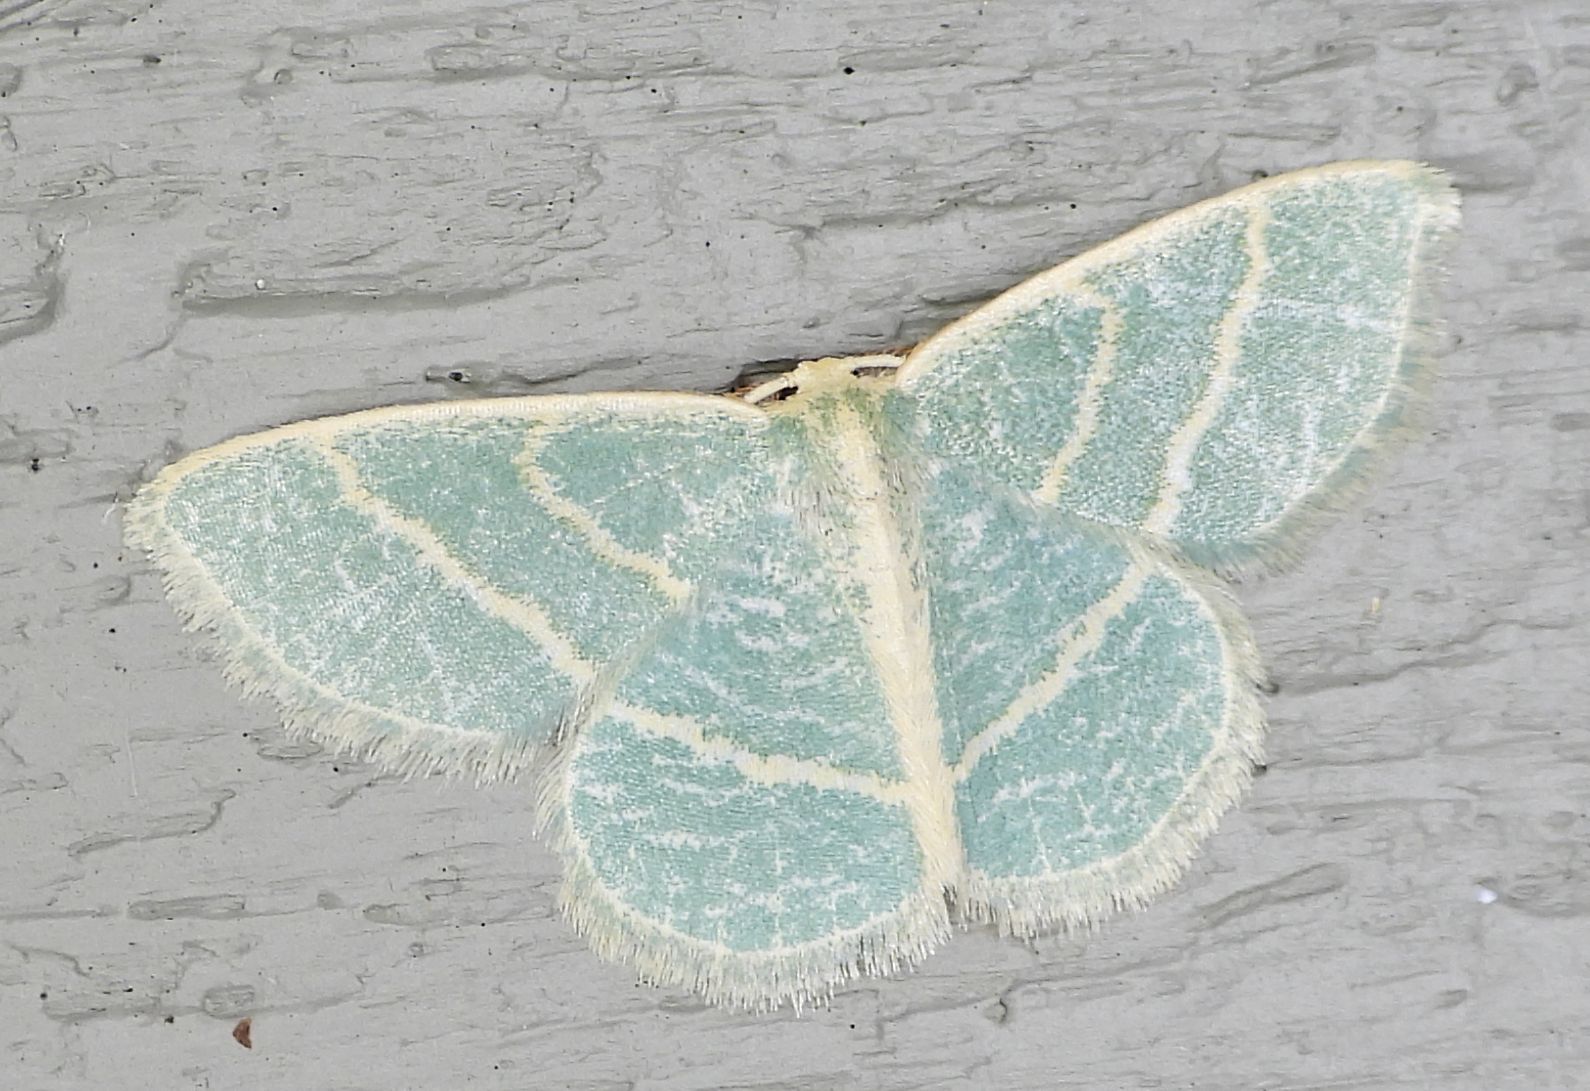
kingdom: Animalia
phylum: Arthropoda
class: Insecta
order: Lepidoptera
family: Geometridae
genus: Chlorochlamys
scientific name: Chlorochlamys chloroleucaria
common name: Blackberry looper
